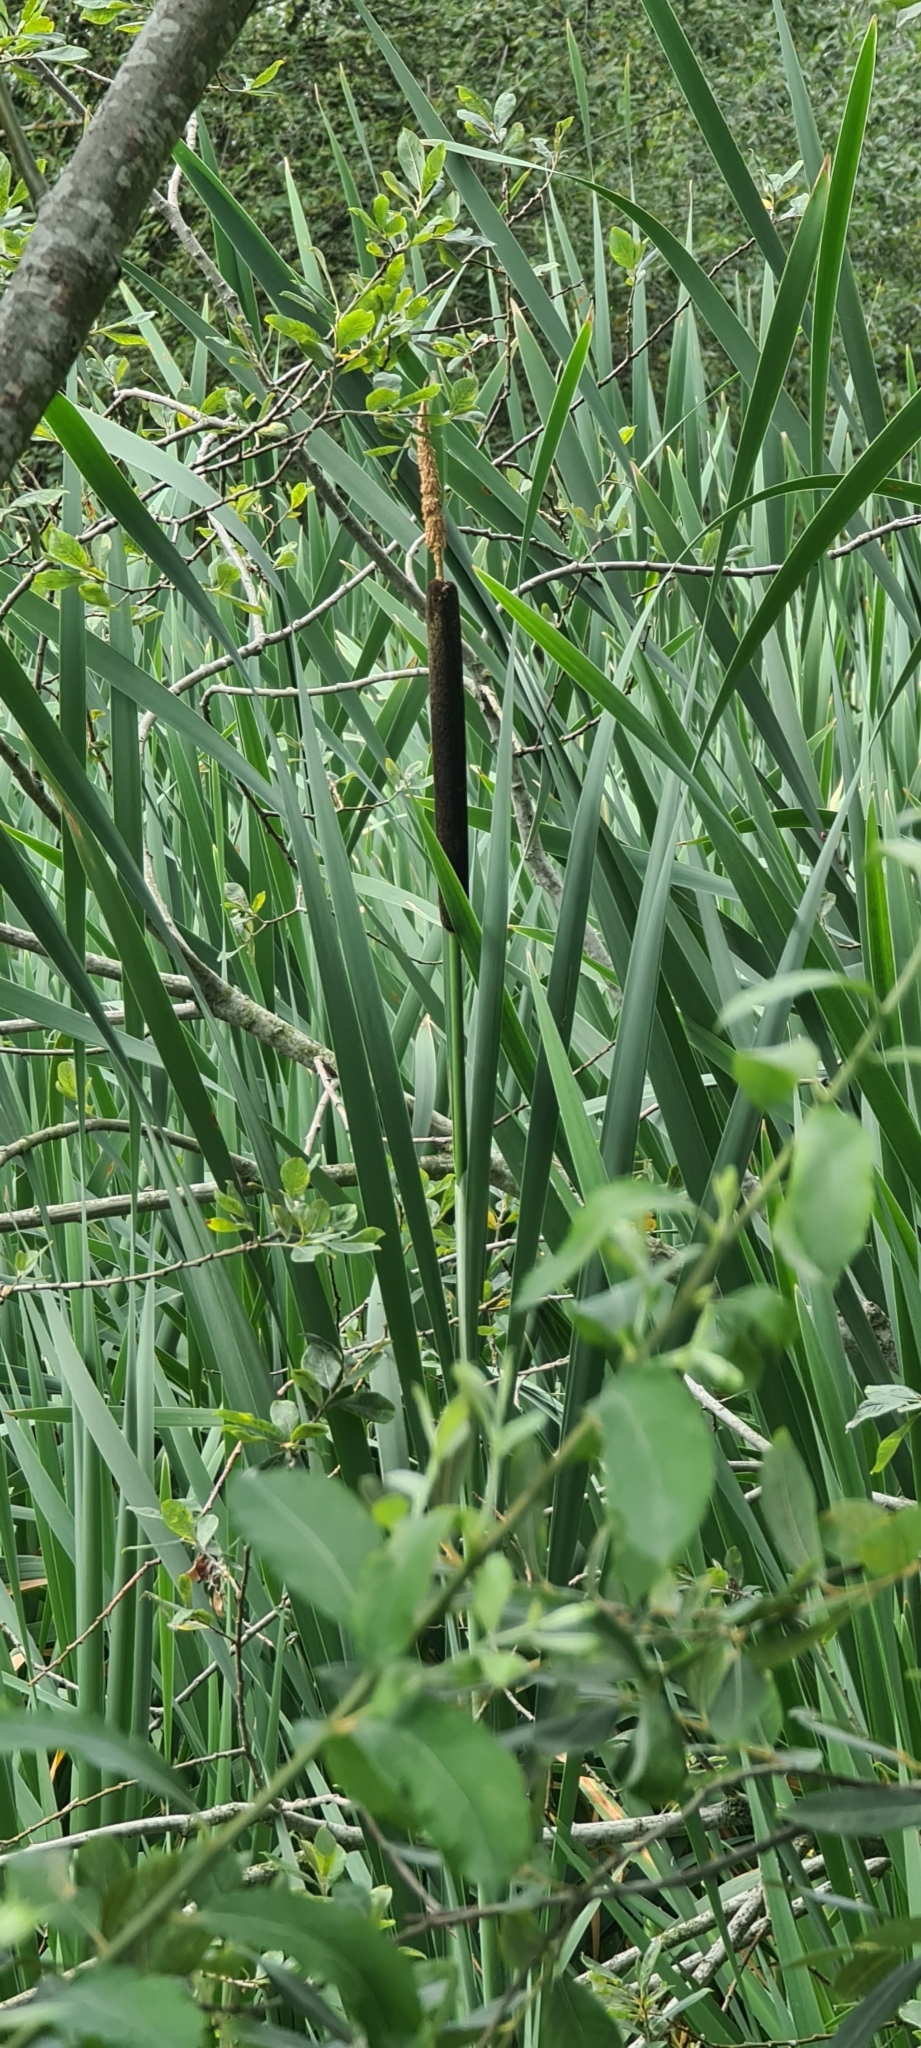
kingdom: Plantae
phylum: Tracheophyta
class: Liliopsida
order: Poales
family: Typhaceae
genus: Typha
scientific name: Typha latifolia
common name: Broadleaf cattail
